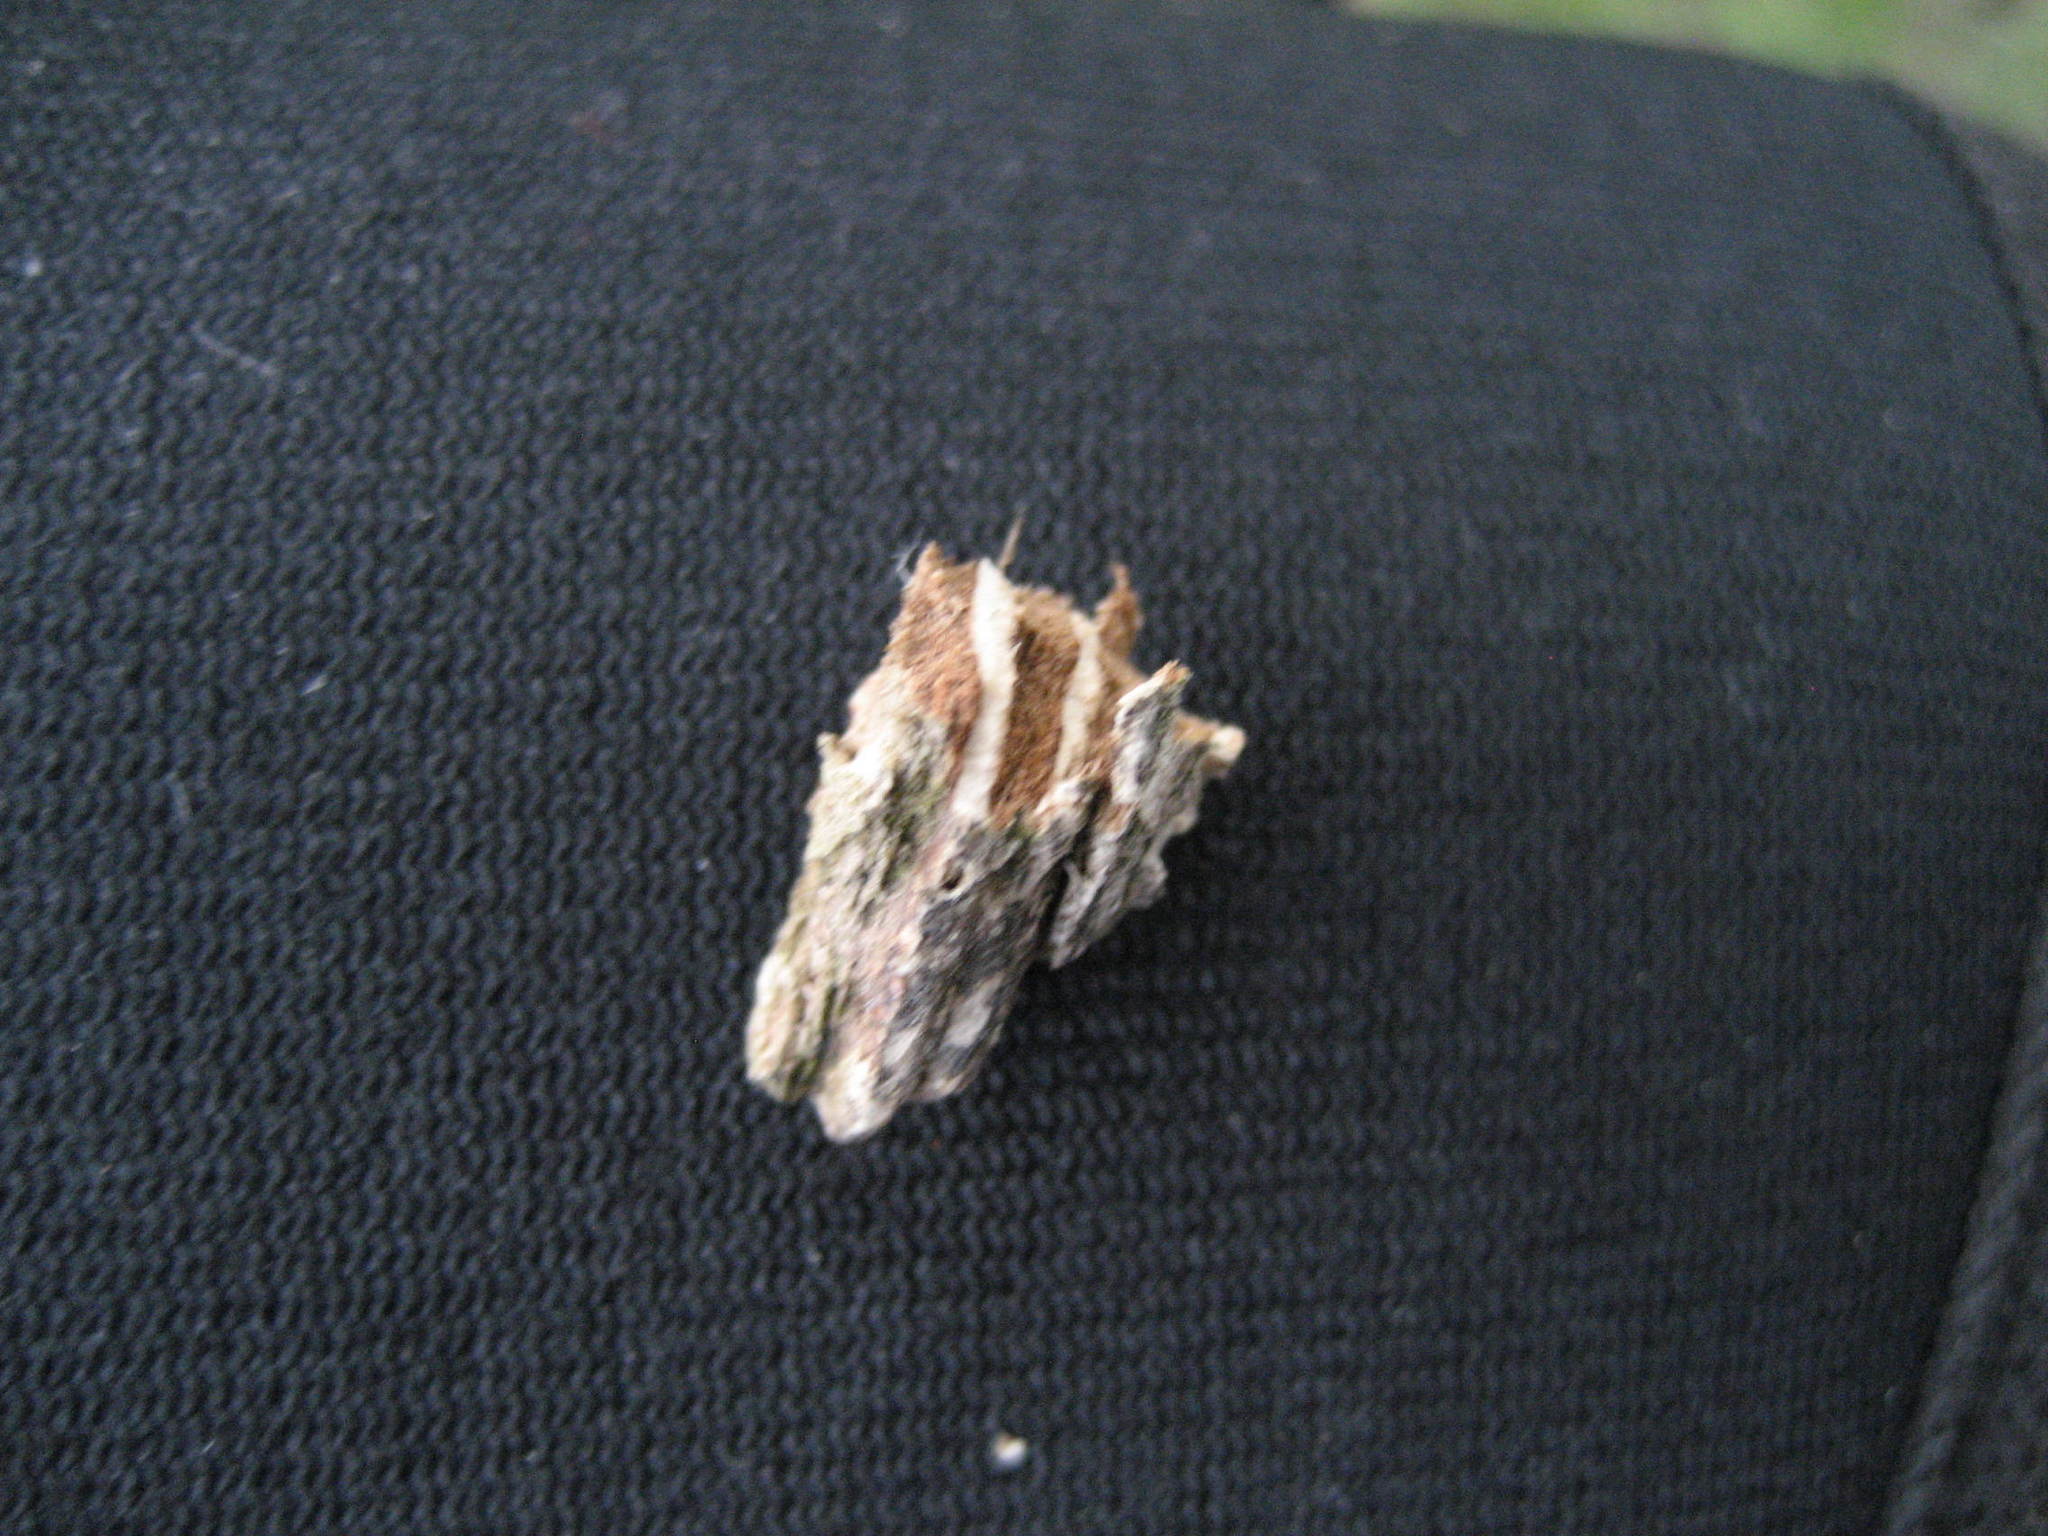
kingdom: Plantae
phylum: Tracheophyta
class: Magnoliopsida
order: Rosales
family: Ulmaceae
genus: Ulmus
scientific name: Ulmus americana
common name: American elm
